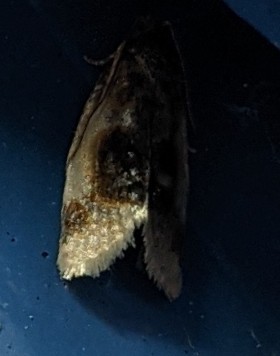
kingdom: Animalia
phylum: Arthropoda
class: Insecta
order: Lepidoptera
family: Tortricidae
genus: Clepsis
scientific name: Clepsis melaleucanus
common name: American apple tortrix
